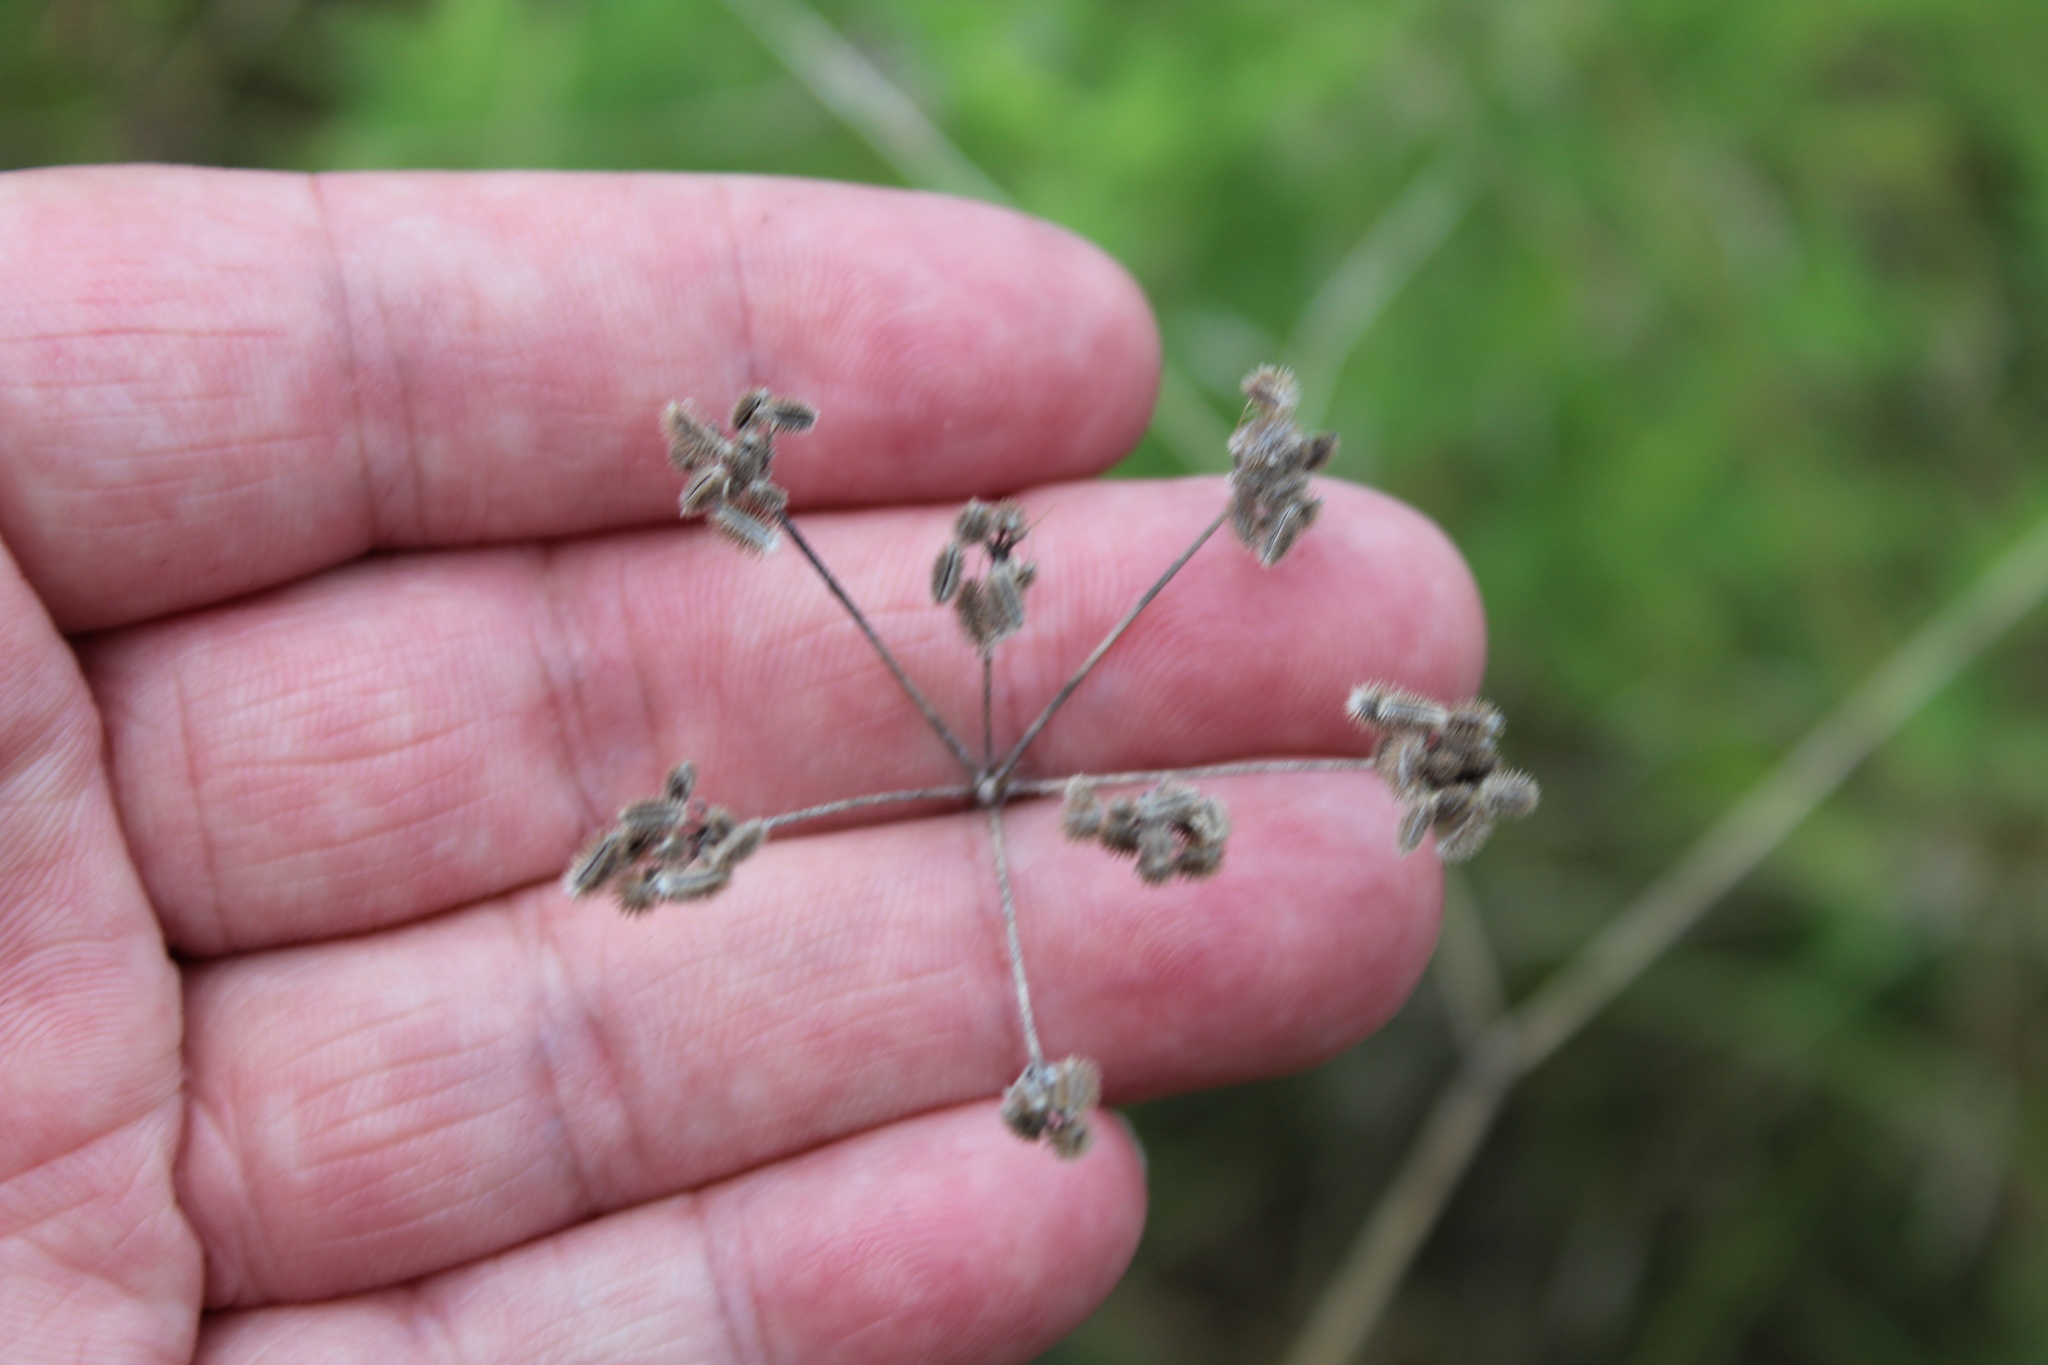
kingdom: Plantae
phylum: Tracheophyta
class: Magnoliopsida
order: Apiales
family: Apiaceae
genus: Torilis
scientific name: Torilis arvensis
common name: Spreading hedge-parsley
